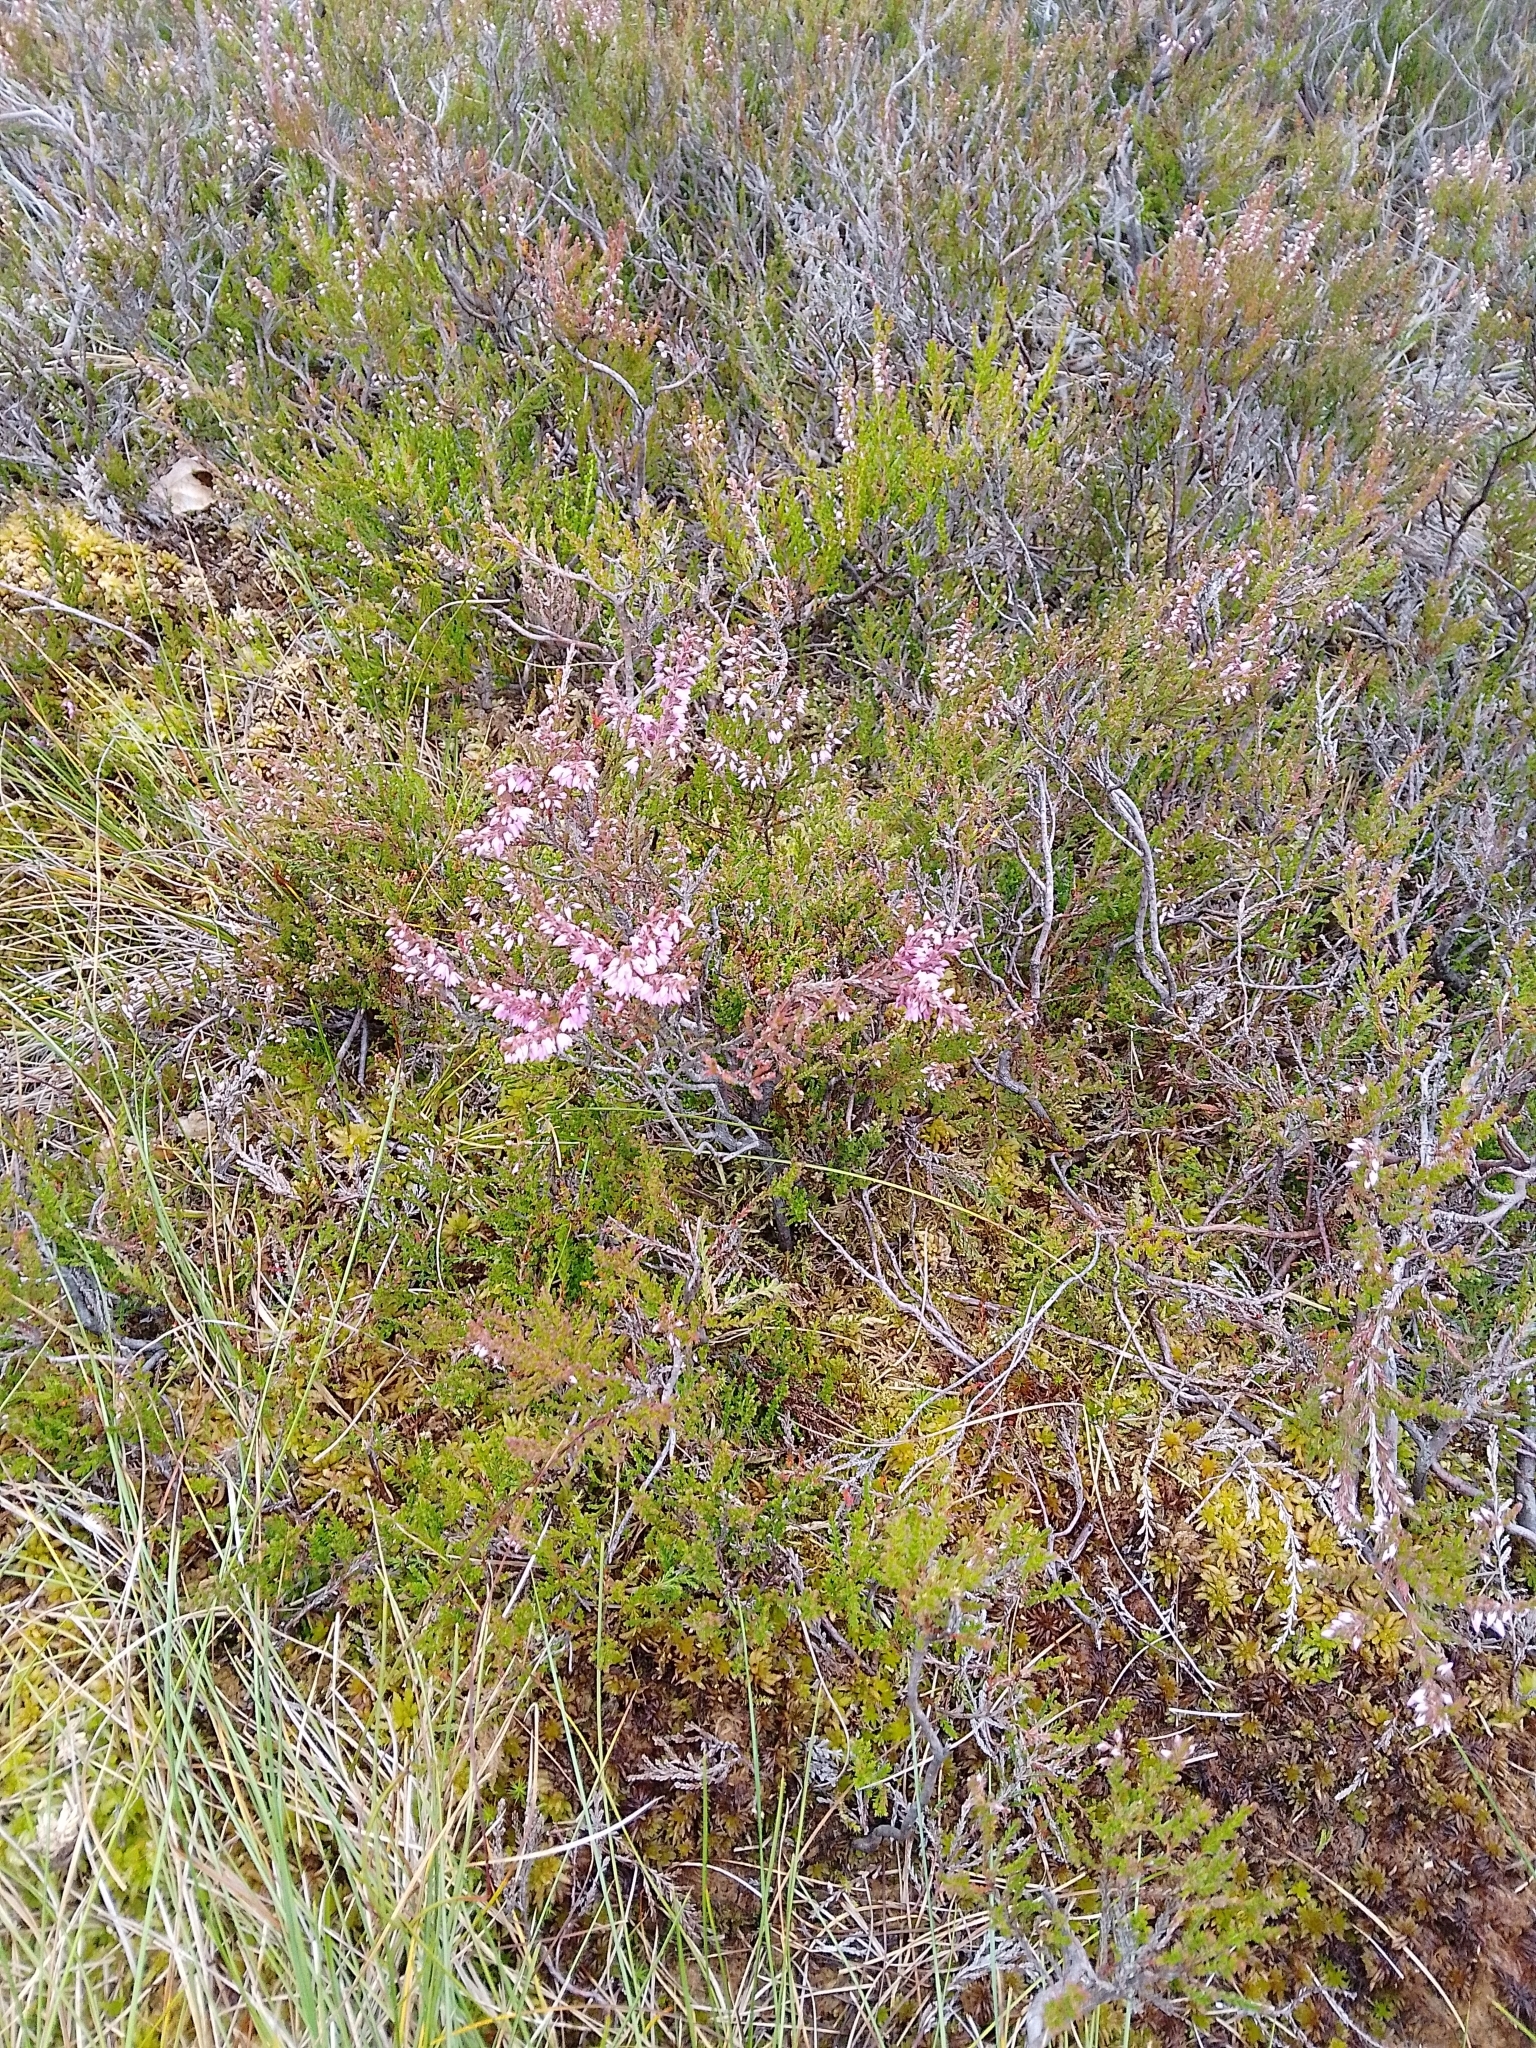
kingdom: Plantae
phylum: Tracheophyta
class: Magnoliopsida
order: Ericales
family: Ericaceae
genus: Calluna
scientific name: Calluna vulgaris
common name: Heather
